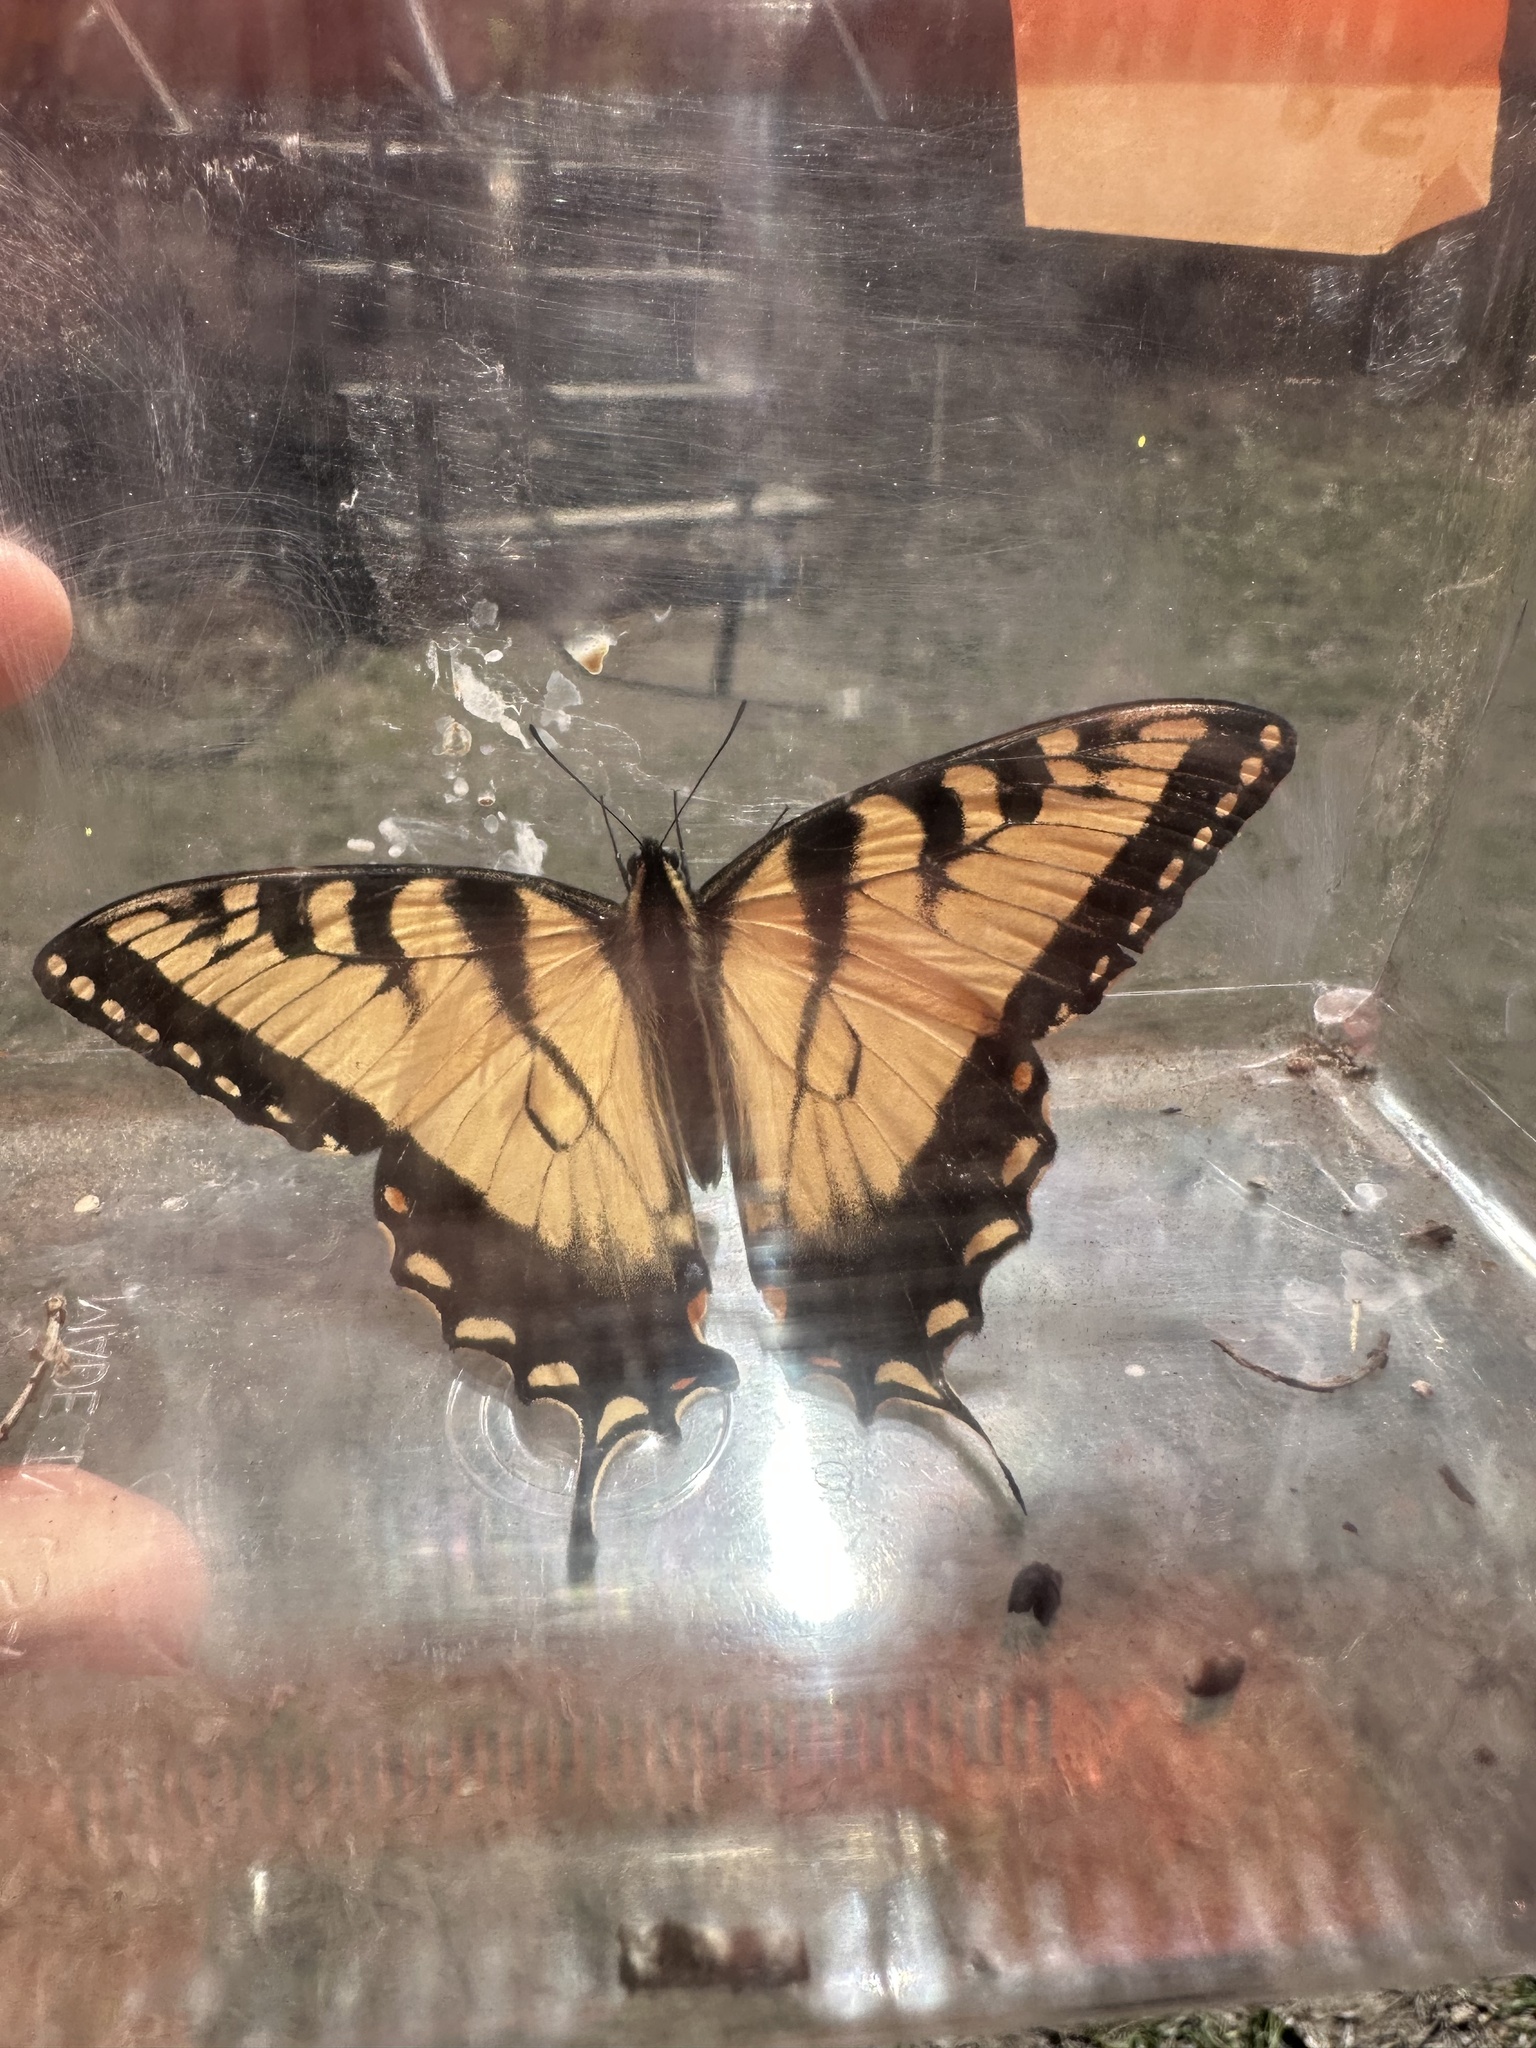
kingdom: Animalia
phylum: Arthropoda
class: Insecta
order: Lepidoptera
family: Papilionidae
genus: Papilio
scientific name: Papilio glaucus
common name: Tiger swallowtail
